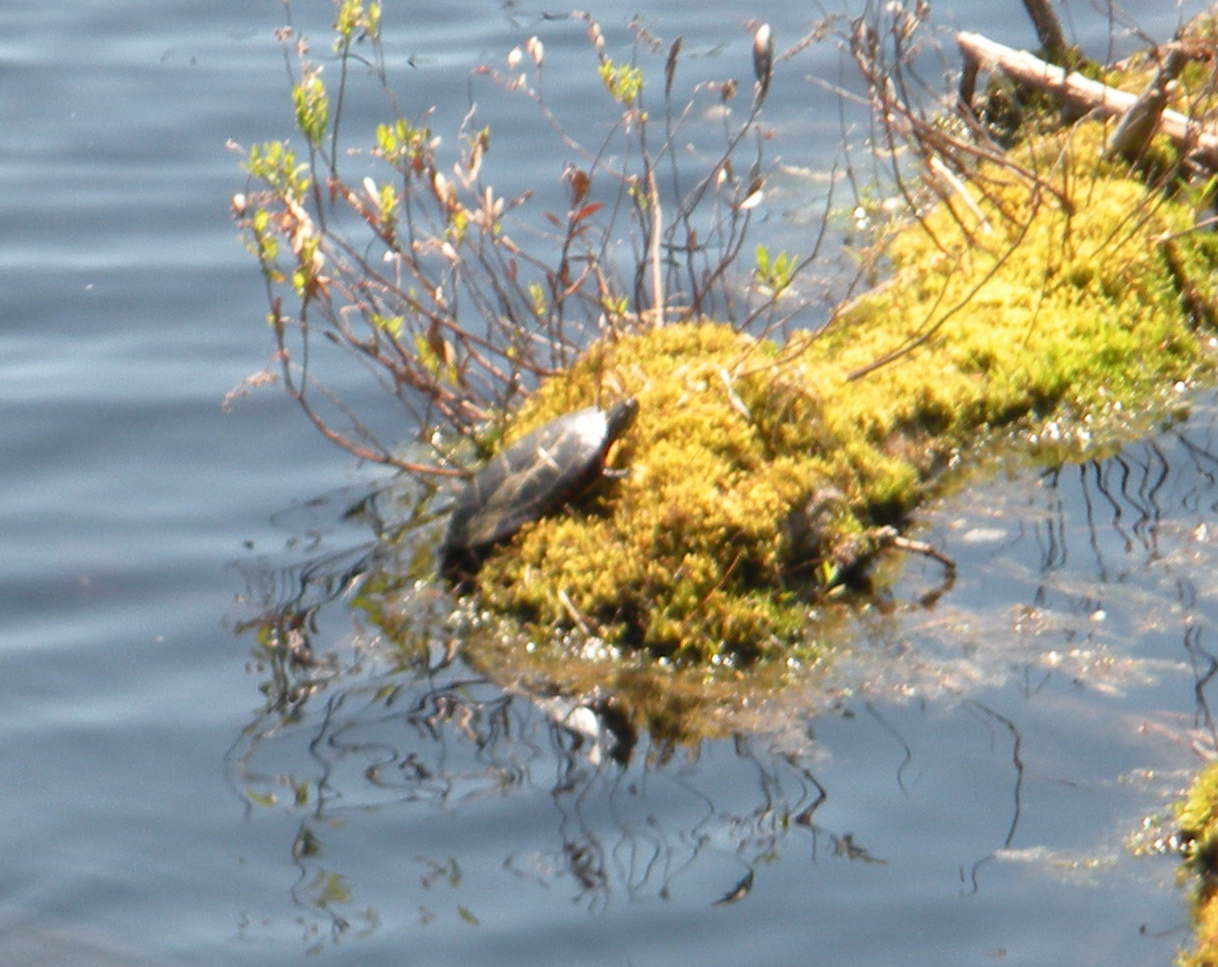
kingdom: Animalia
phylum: Chordata
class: Testudines
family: Emydidae
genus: Chrysemys
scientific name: Chrysemys picta
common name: Painted turtle
